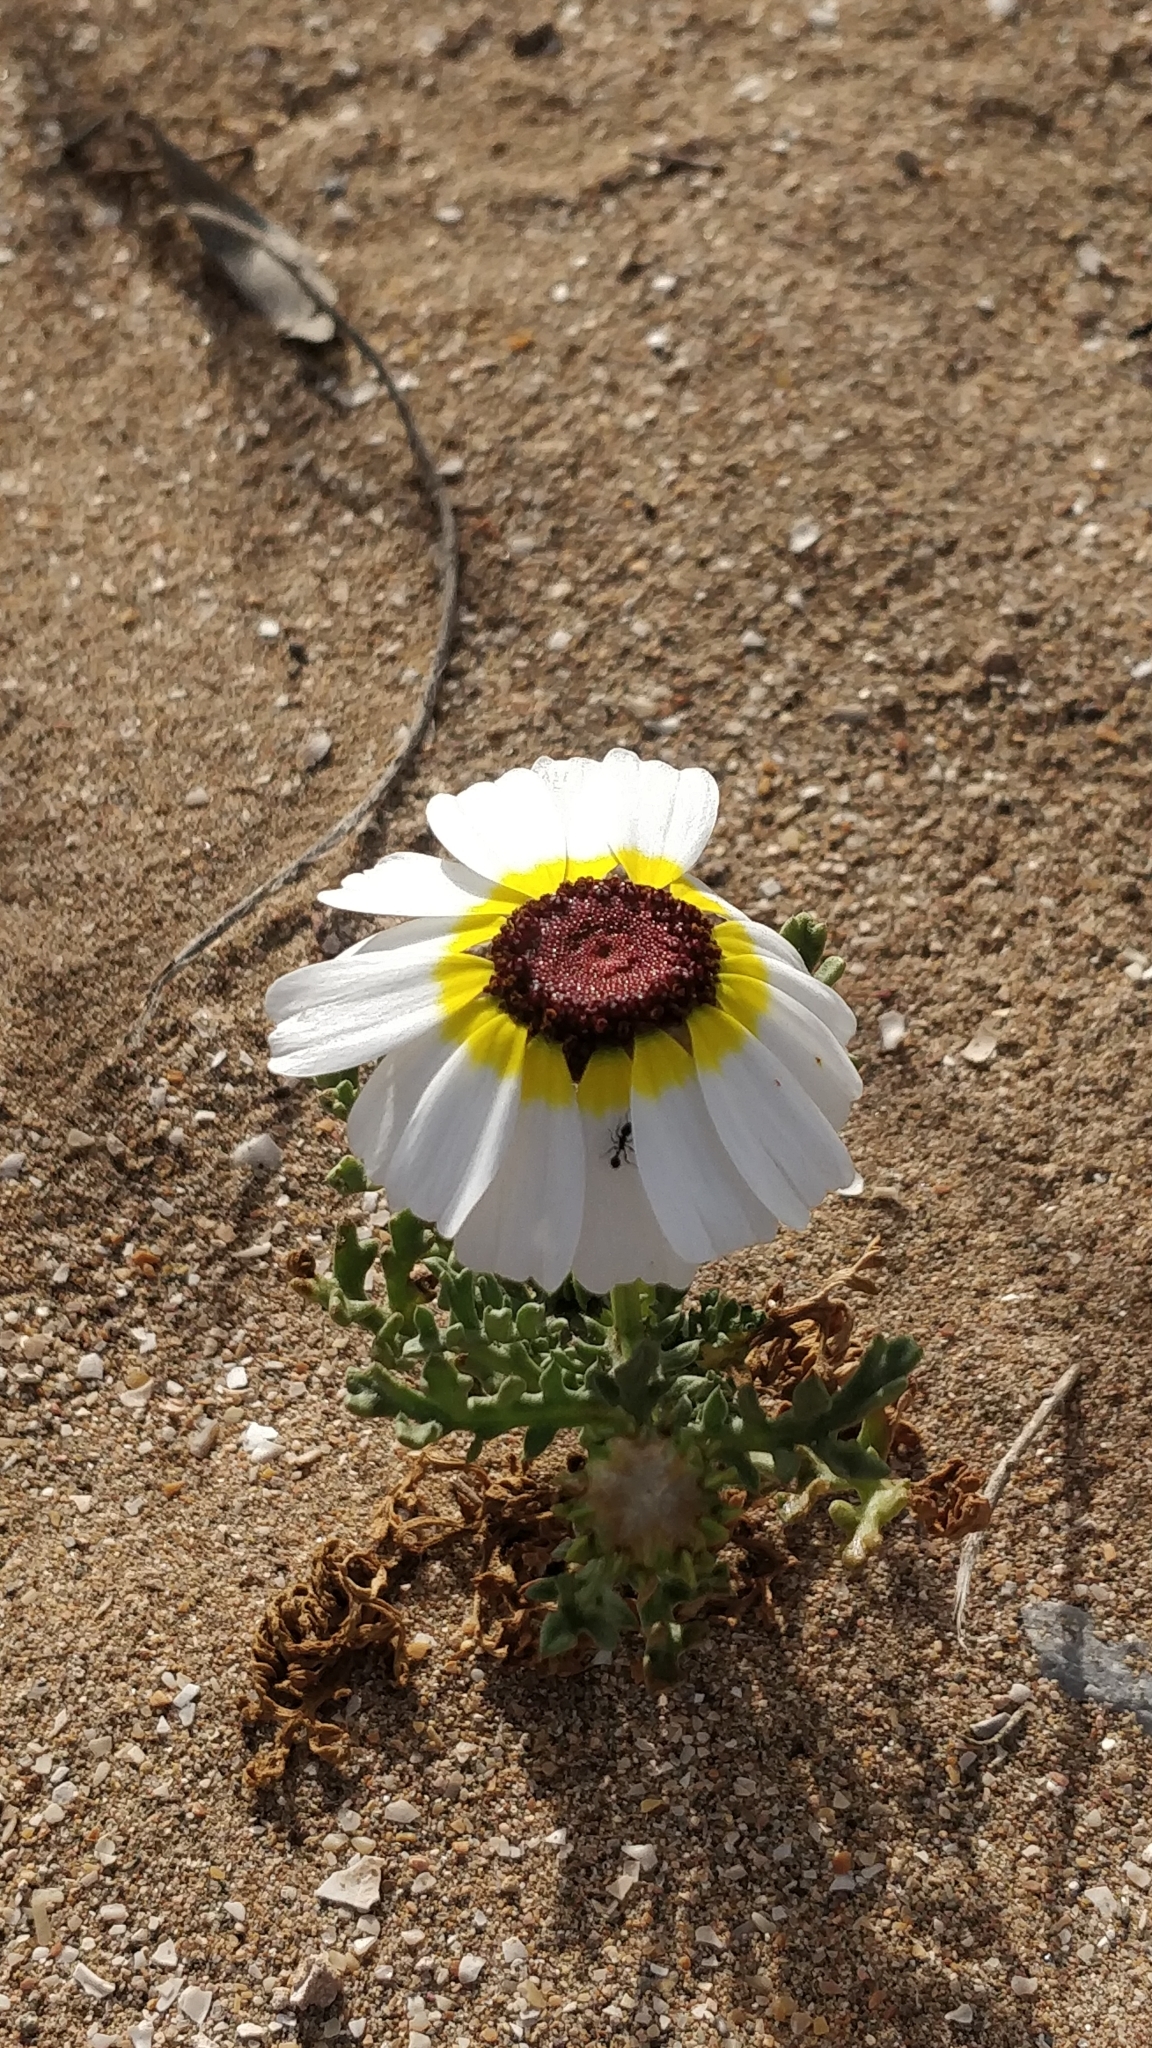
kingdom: Plantae
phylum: Tracheophyta
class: Magnoliopsida
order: Asterales
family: Asteraceae
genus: Glebionis
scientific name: Glebionis carinata
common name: Painted daisy
